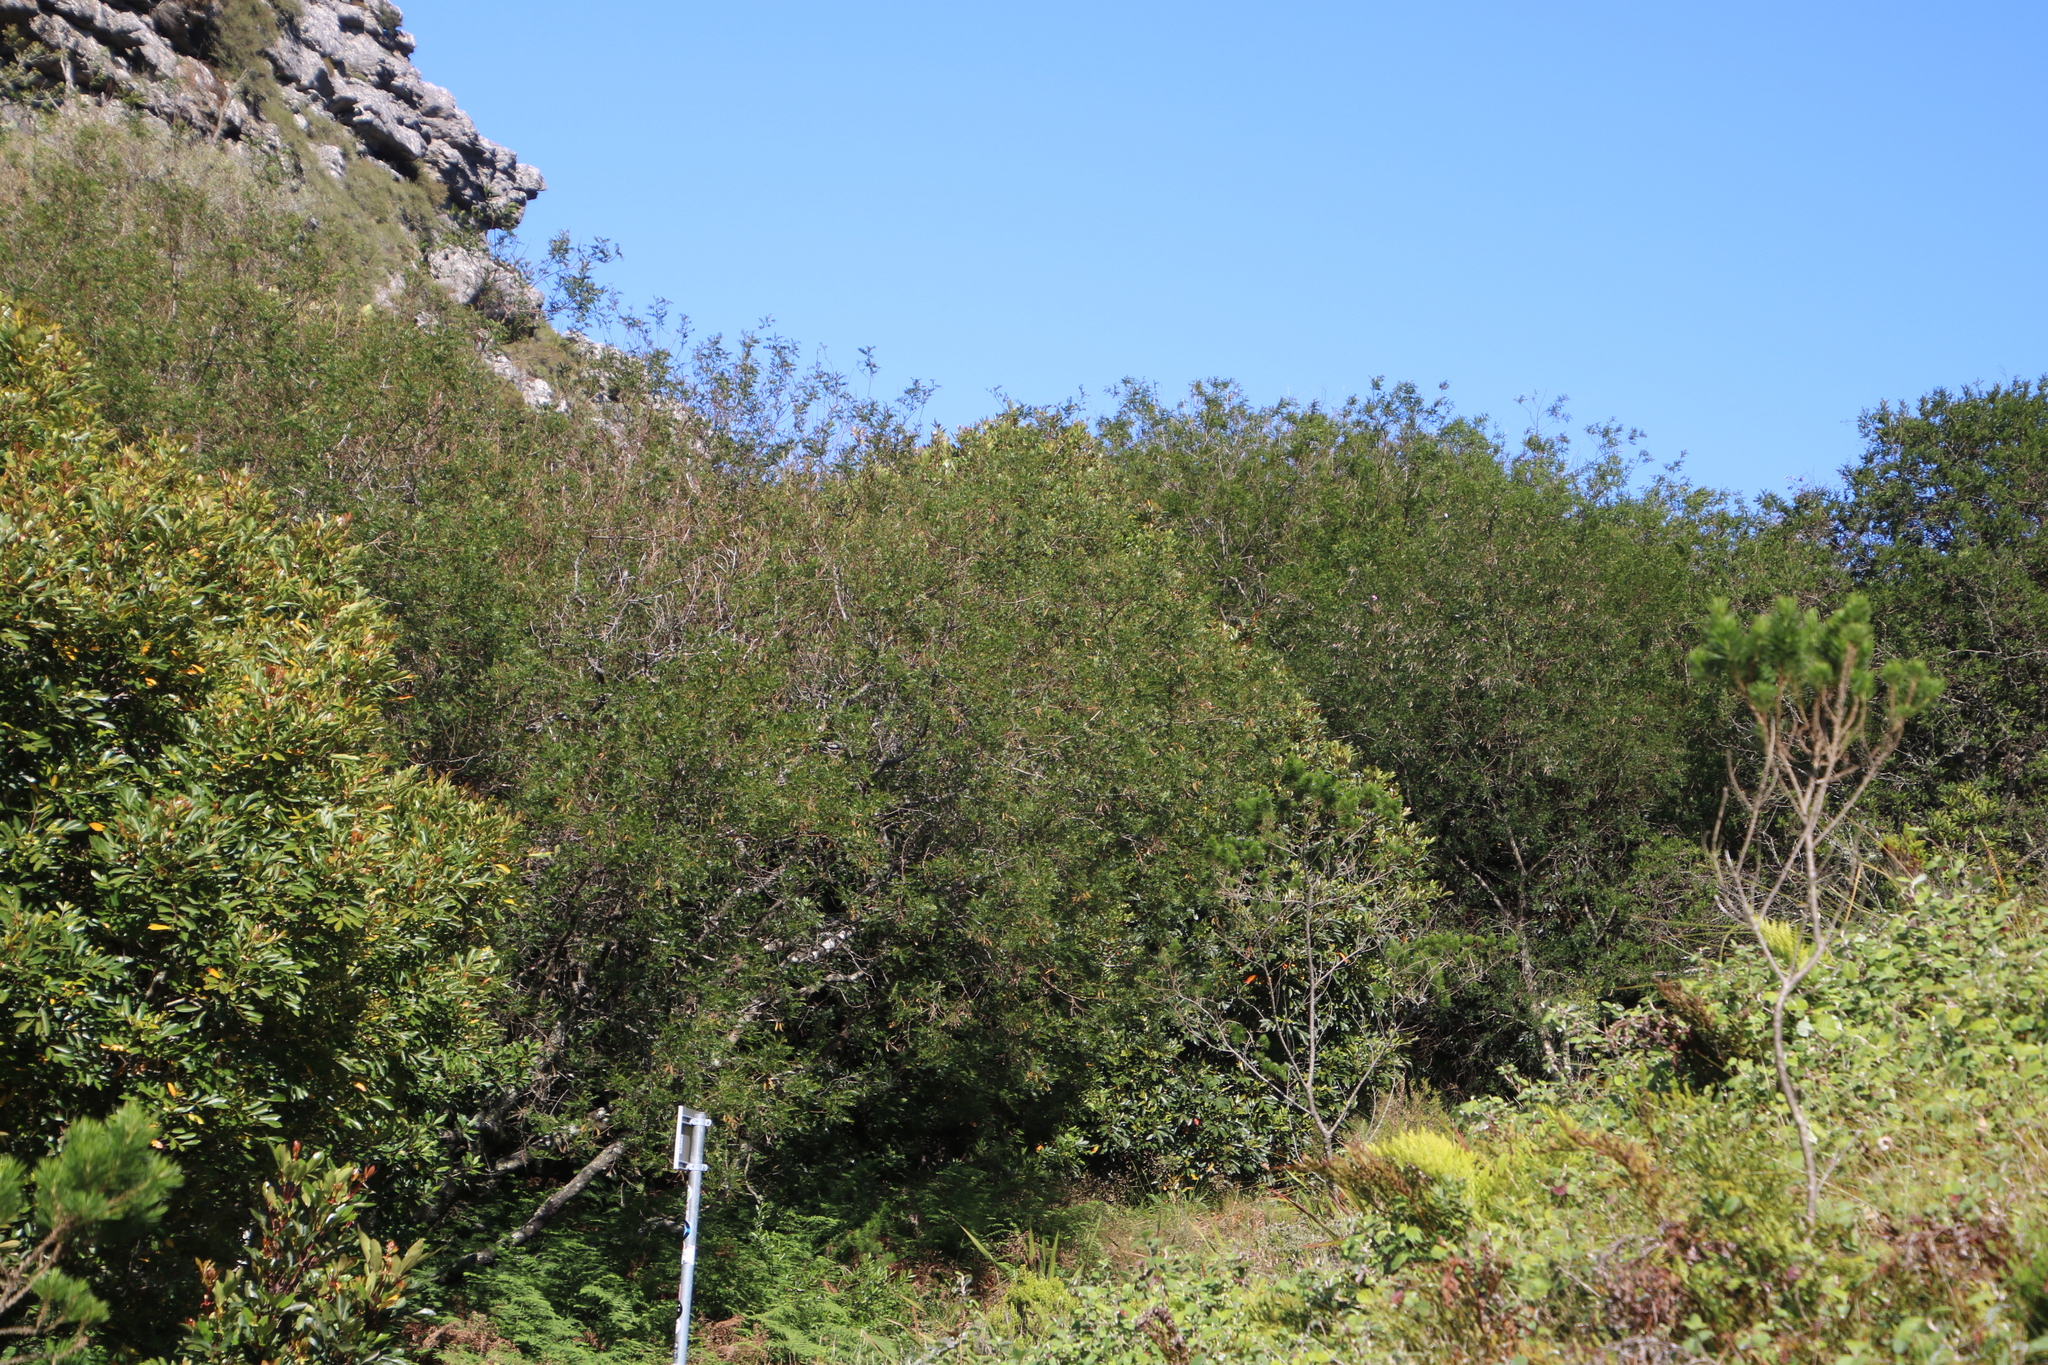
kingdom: Plantae
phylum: Tracheophyta
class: Magnoliopsida
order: Fabales
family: Fabaceae
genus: Virgilia
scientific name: Virgilia oroboides
